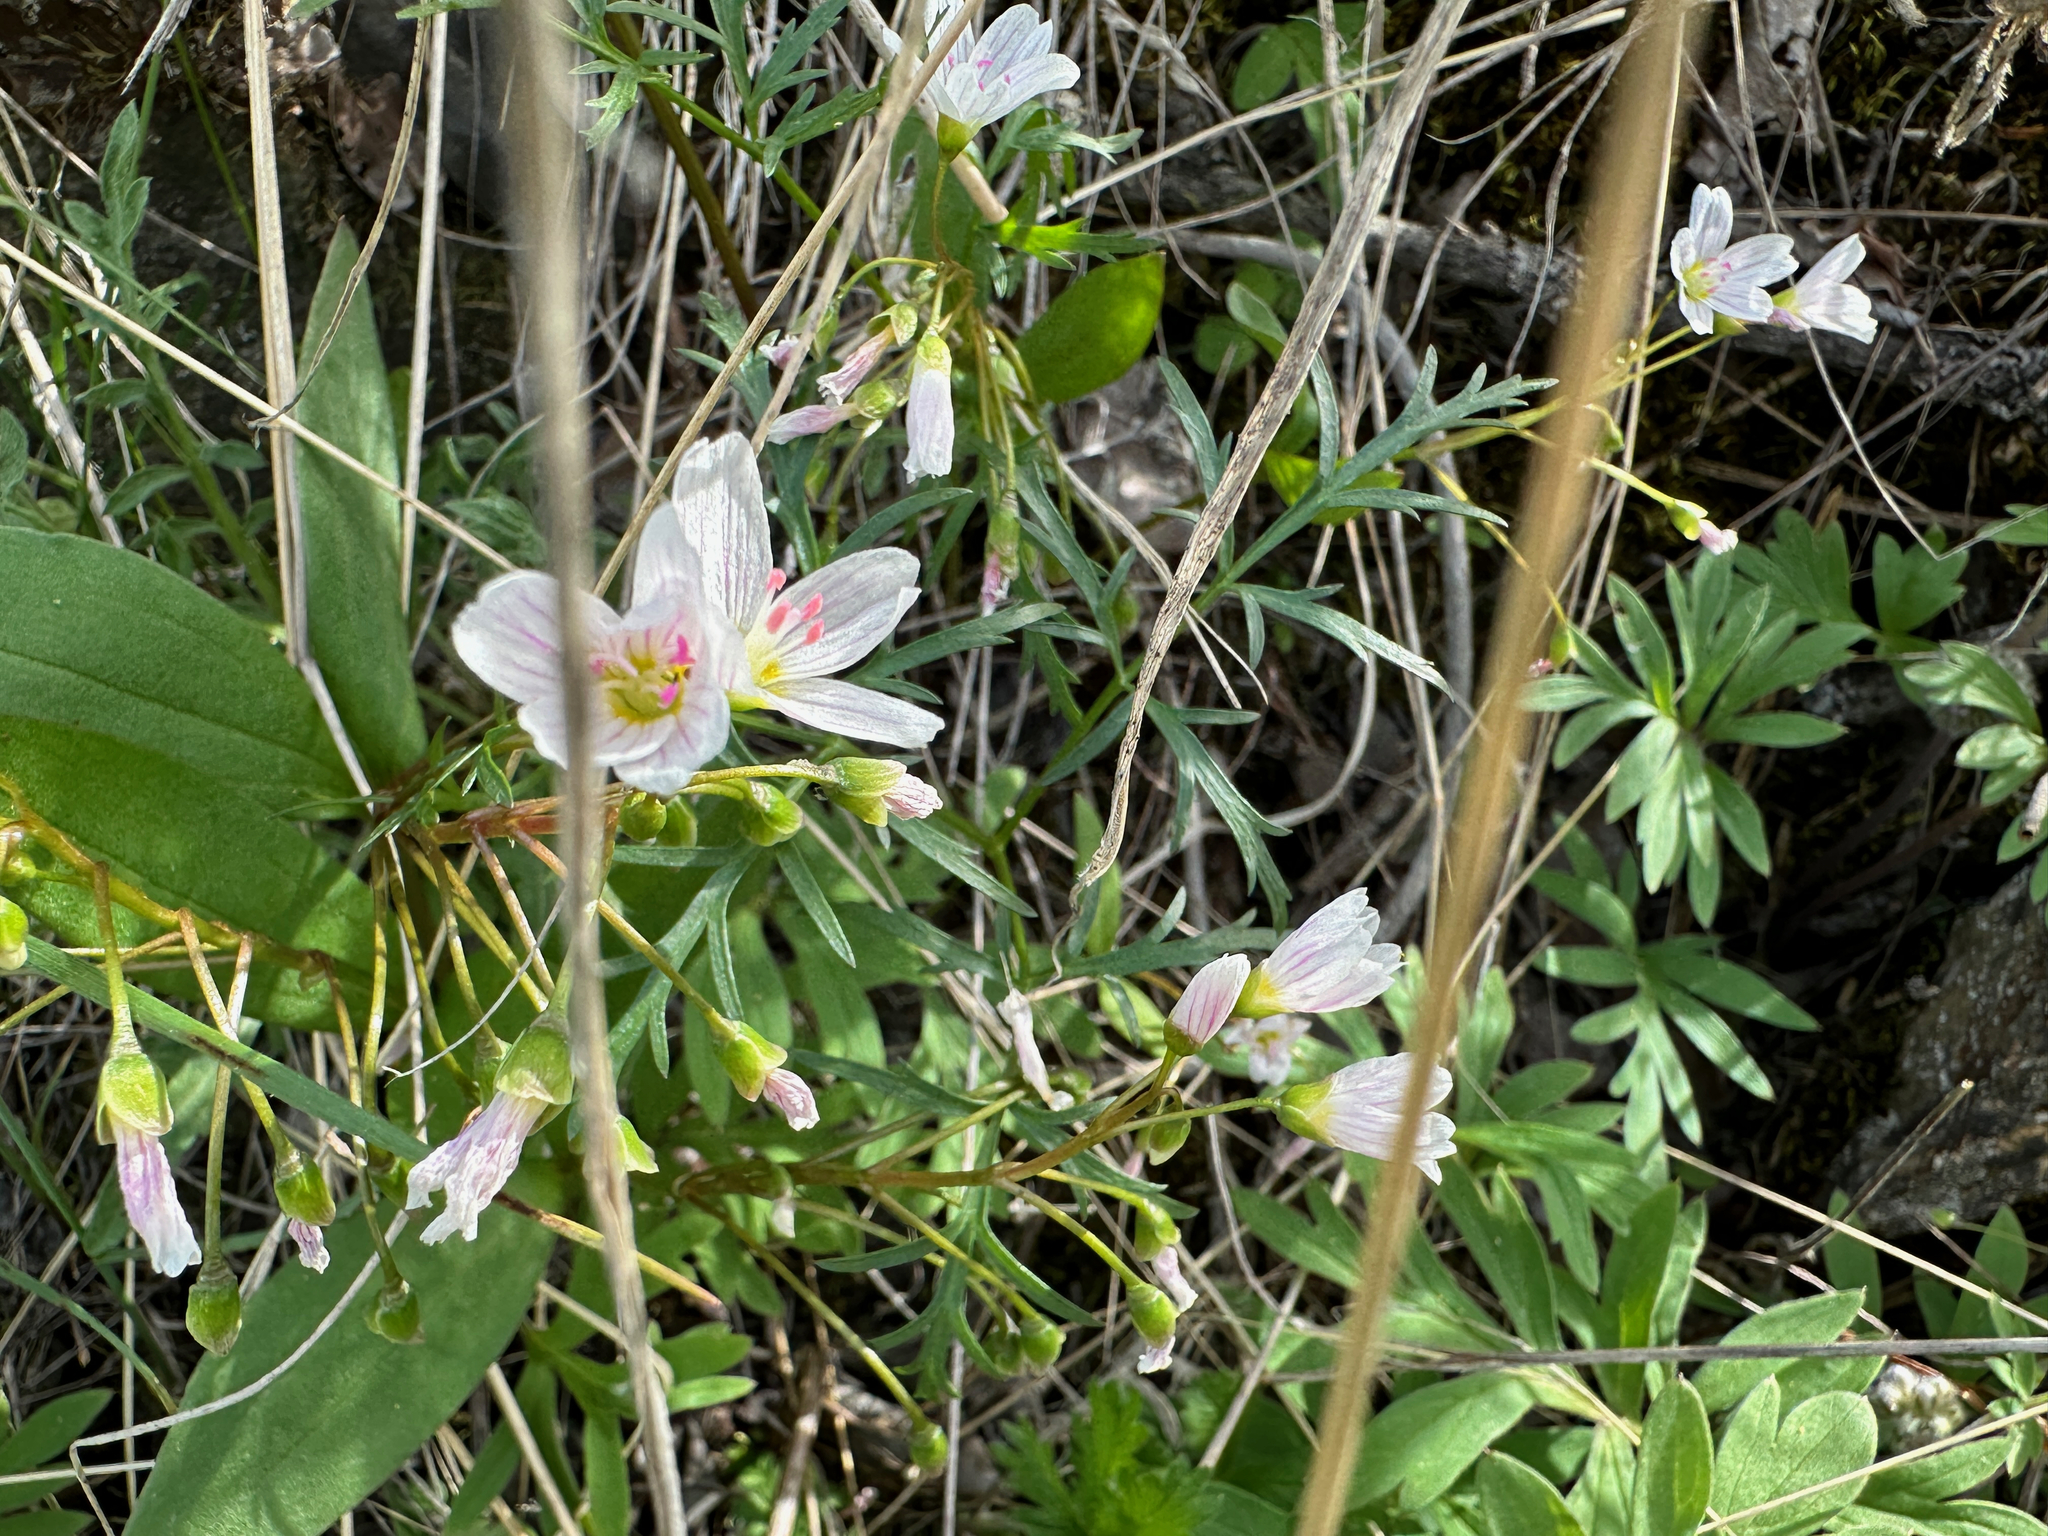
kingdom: Plantae
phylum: Tracheophyta
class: Magnoliopsida
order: Caryophyllales
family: Montiaceae
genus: Claytonia
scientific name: Claytonia lanceolata
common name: Western spring-beauty
